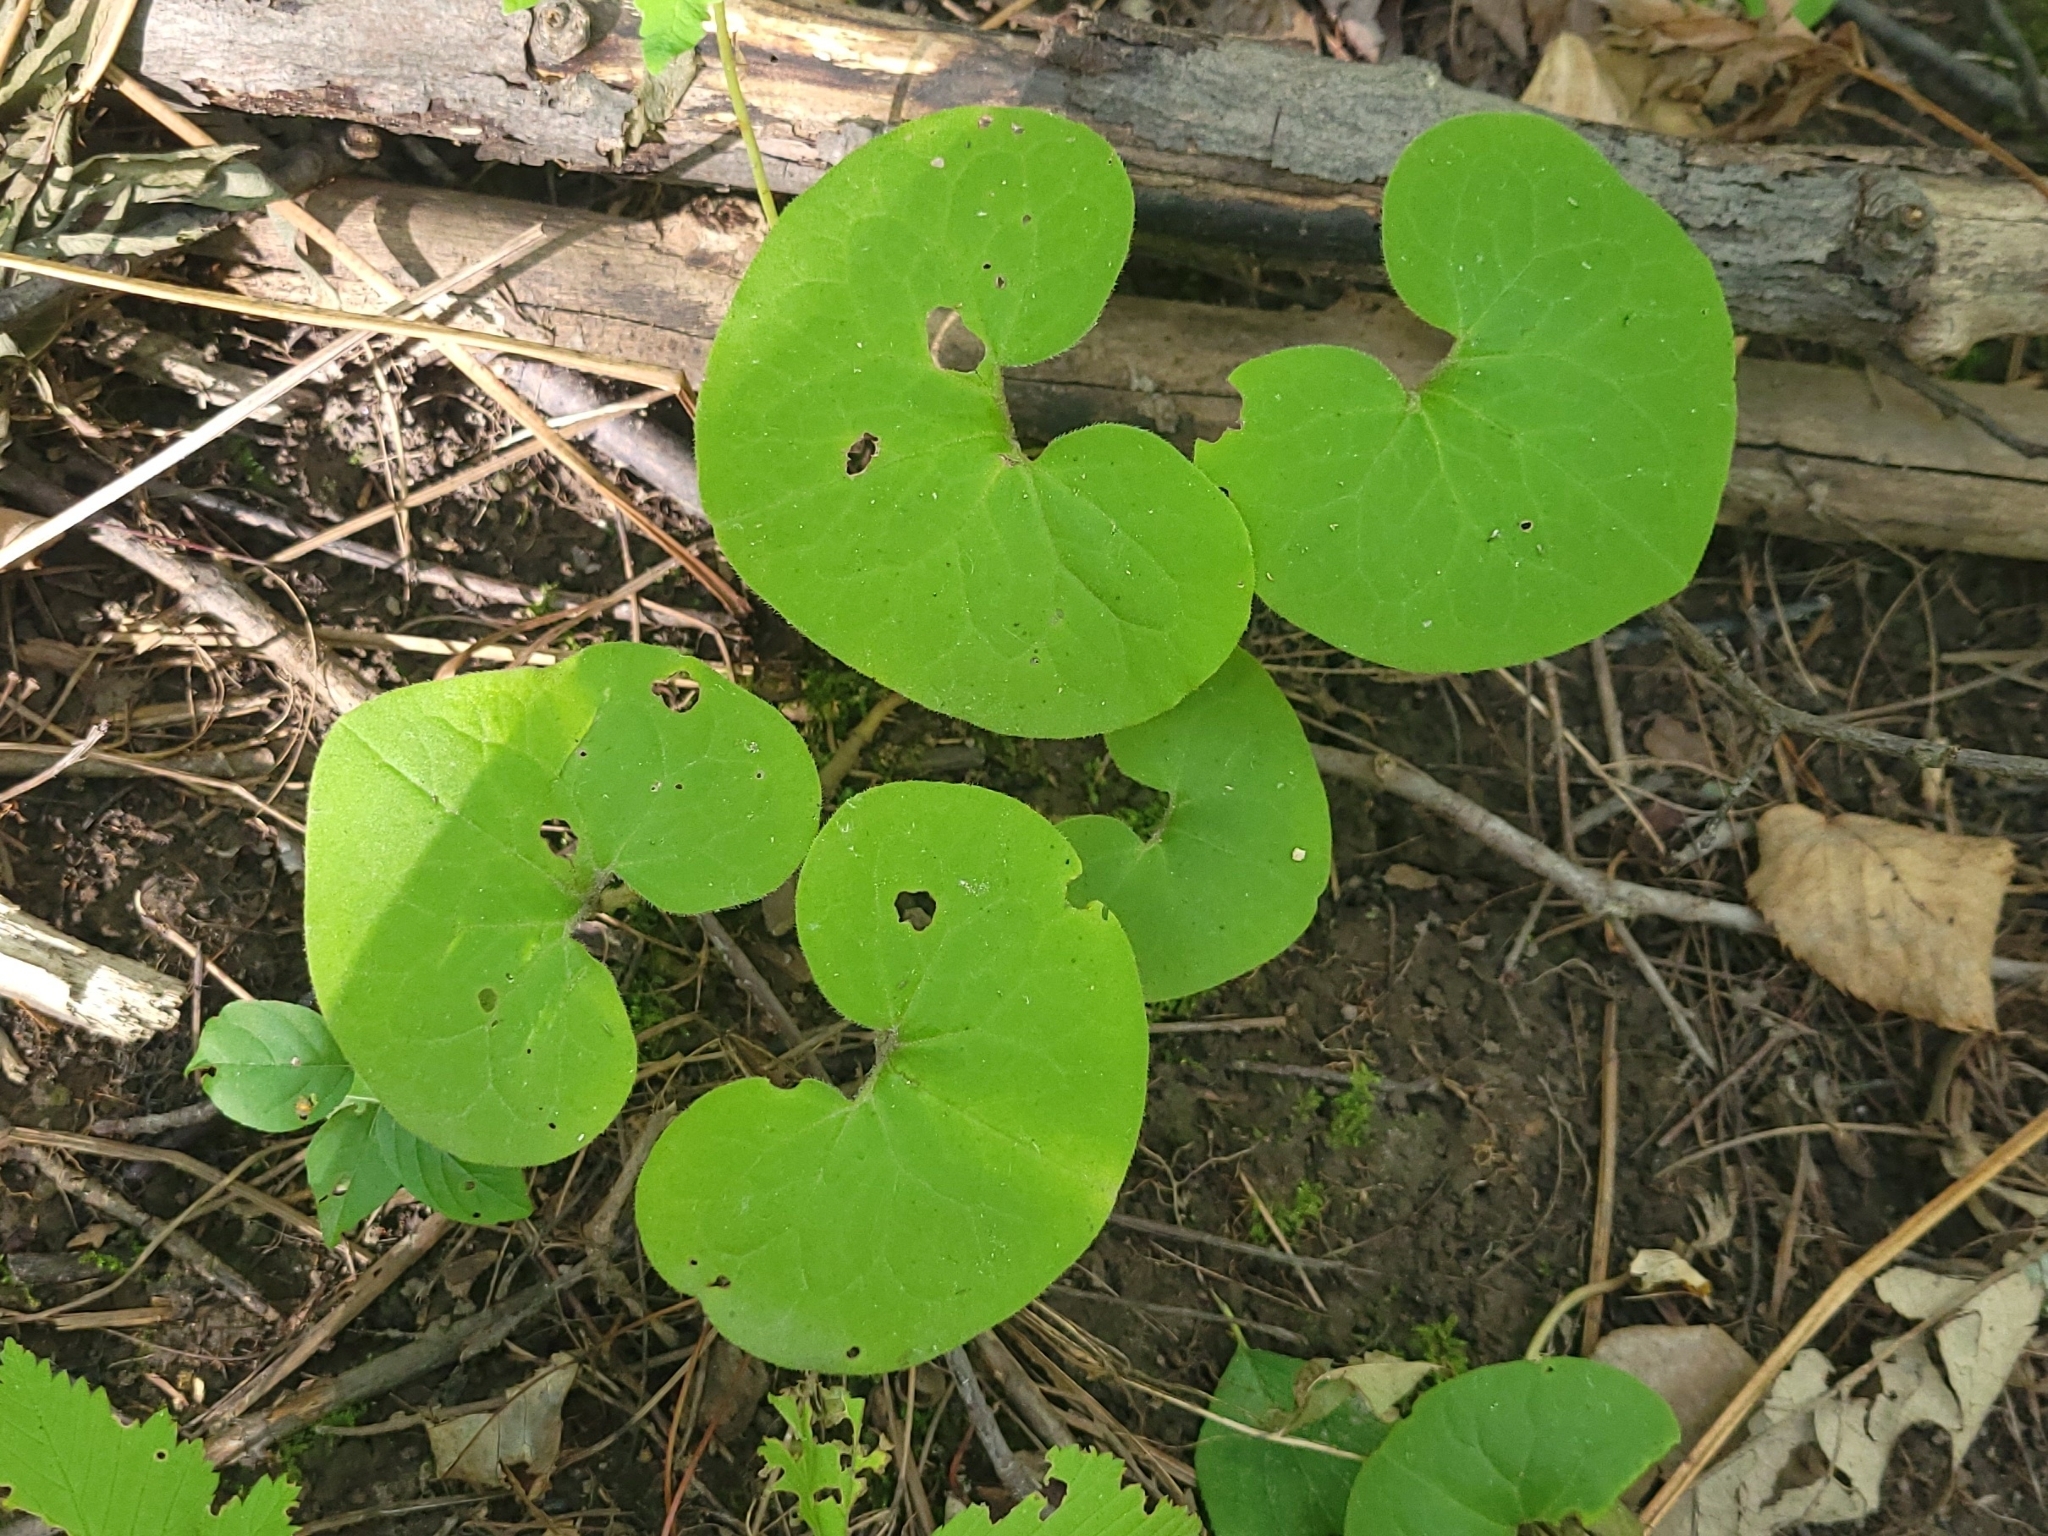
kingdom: Plantae
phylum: Tracheophyta
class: Magnoliopsida
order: Piperales
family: Aristolochiaceae
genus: Asarum
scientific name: Asarum canadense
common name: Wild ginger
